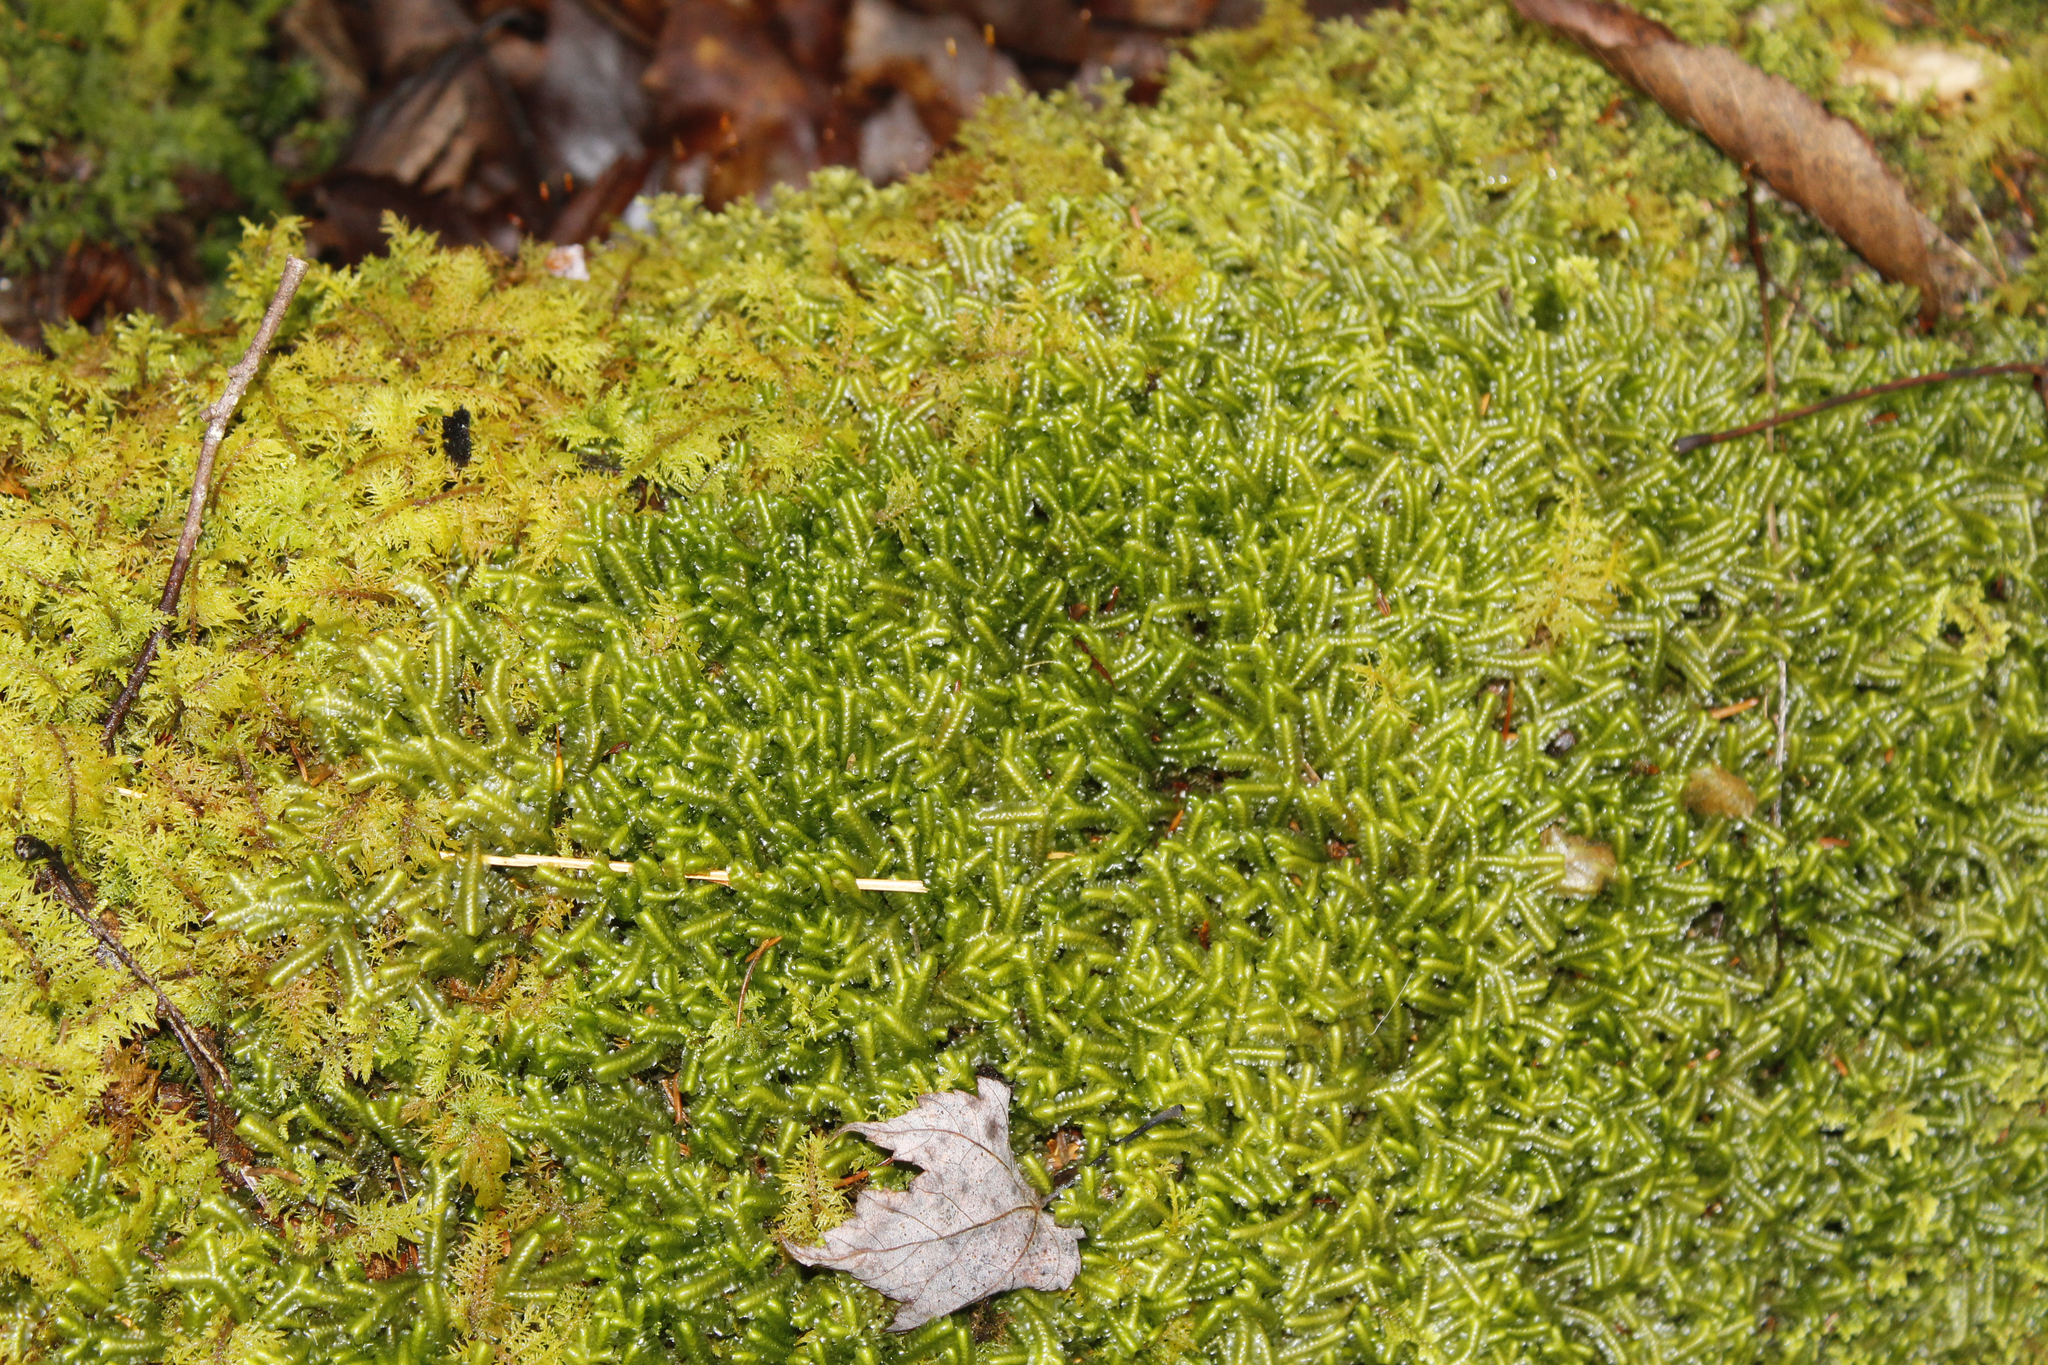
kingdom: Plantae
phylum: Marchantiophyta
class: Jungermanniopsida
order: Jungermanniales
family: Lepidoziaceae
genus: Bazzania
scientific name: Bazzania trilobata
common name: Three-lobed whipwort
